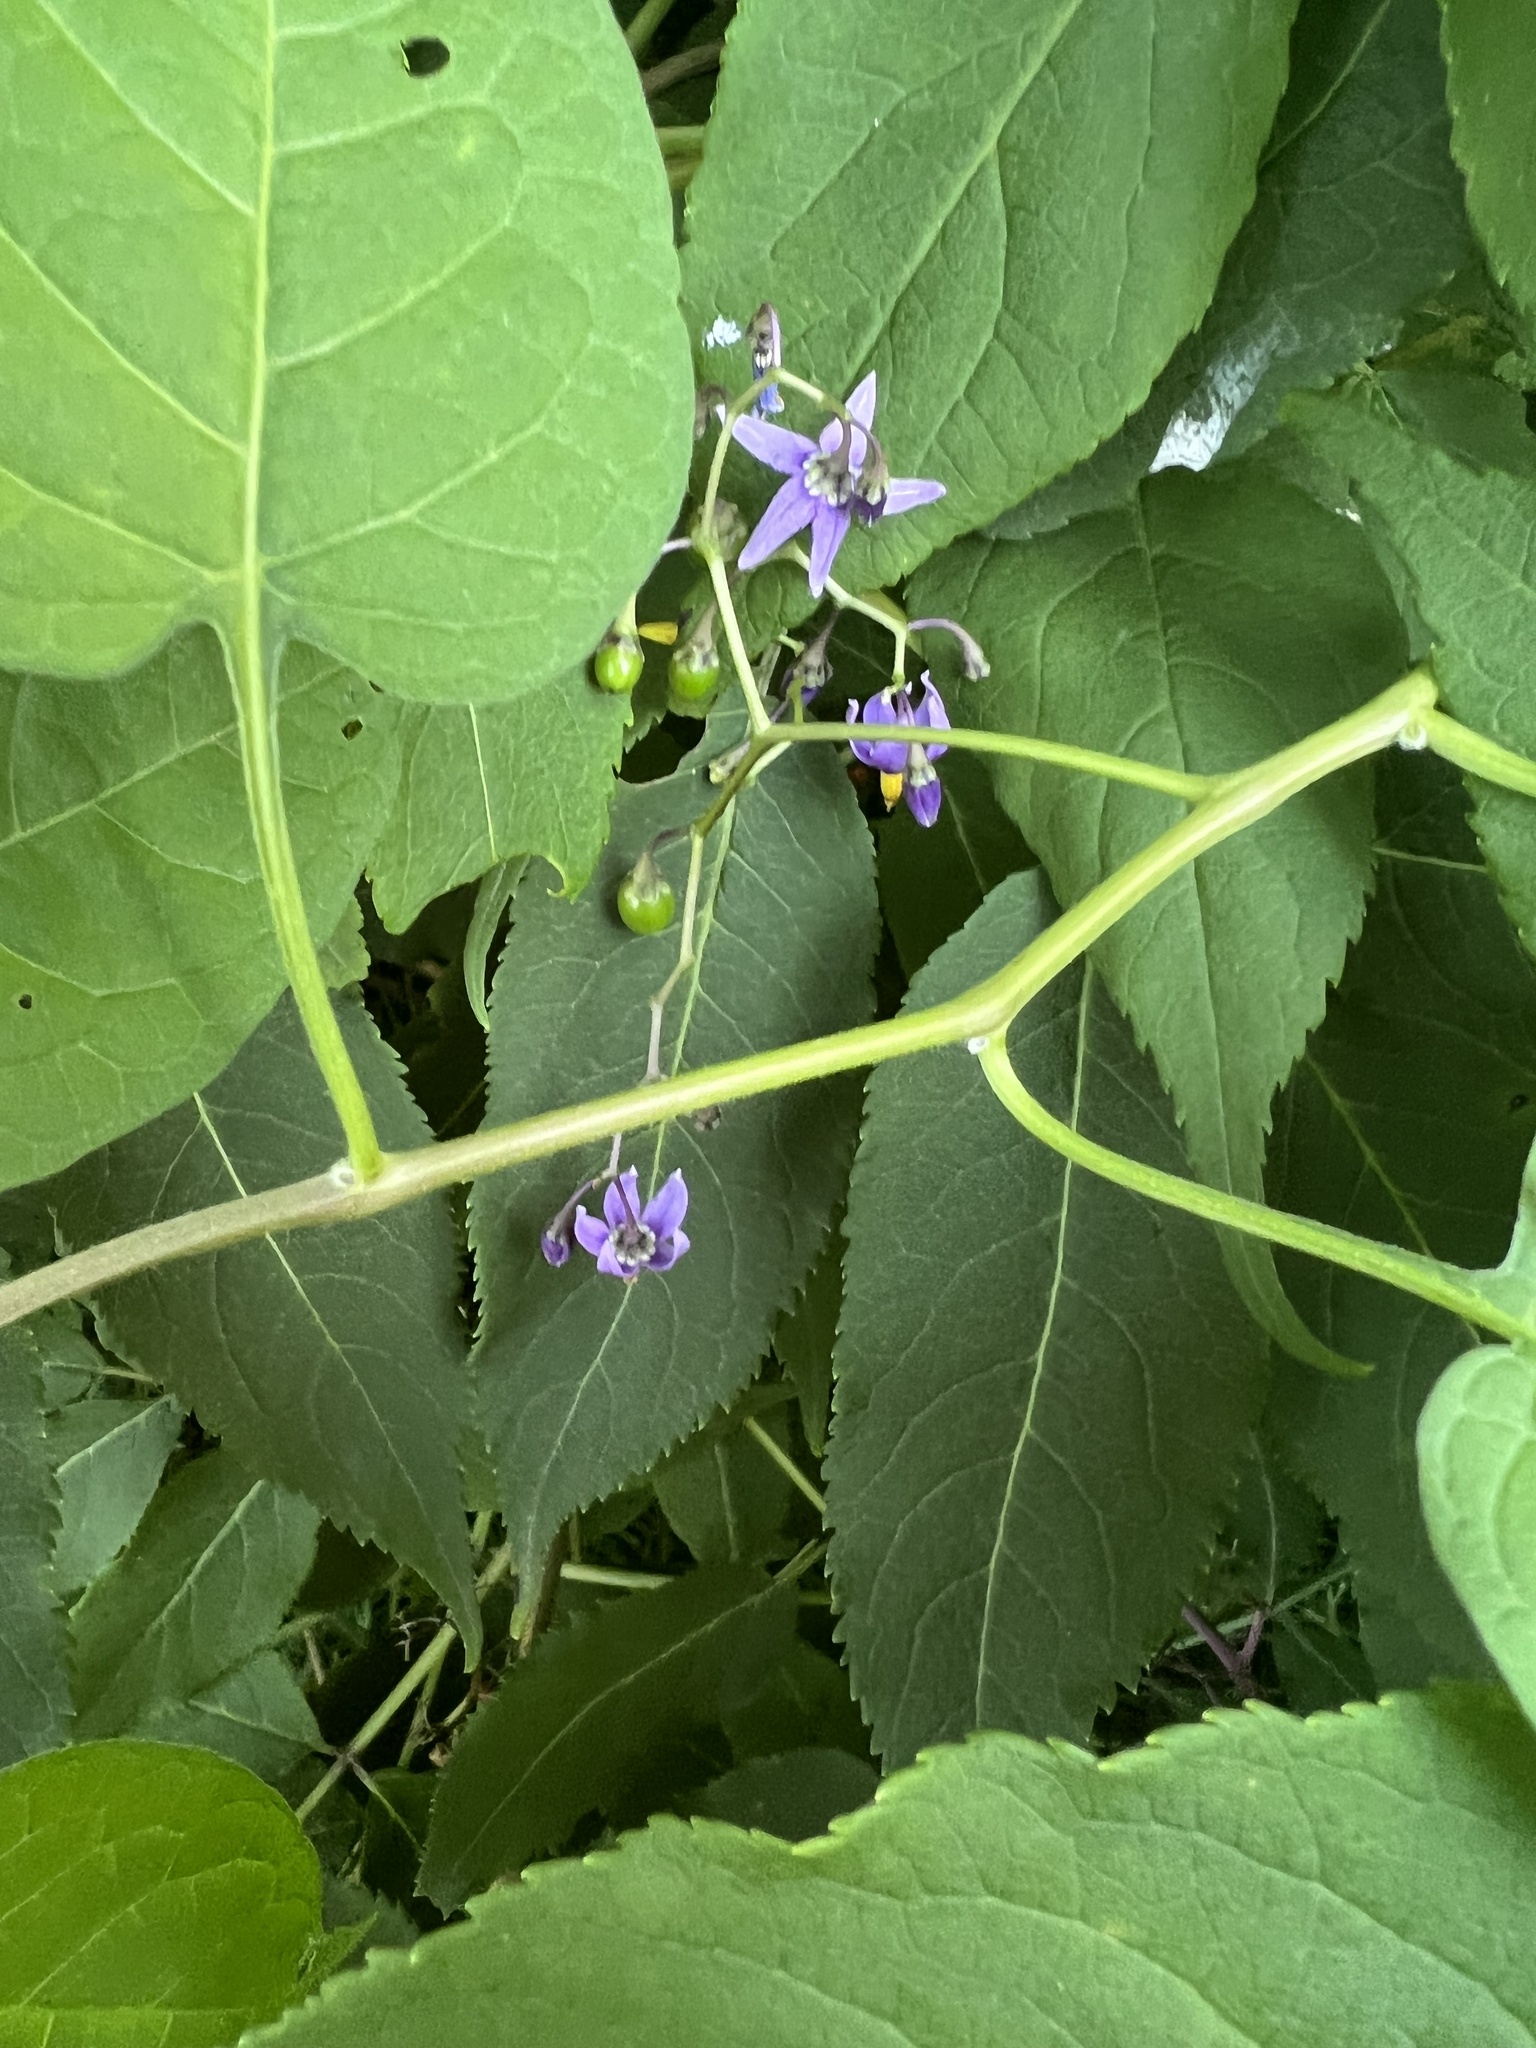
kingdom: Plantae
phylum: Tracheophyta
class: Magnoliopsida
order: Solanales
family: Solanaceae
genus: Solanum
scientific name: Solanum dulcamara
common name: Climbing nightshade
